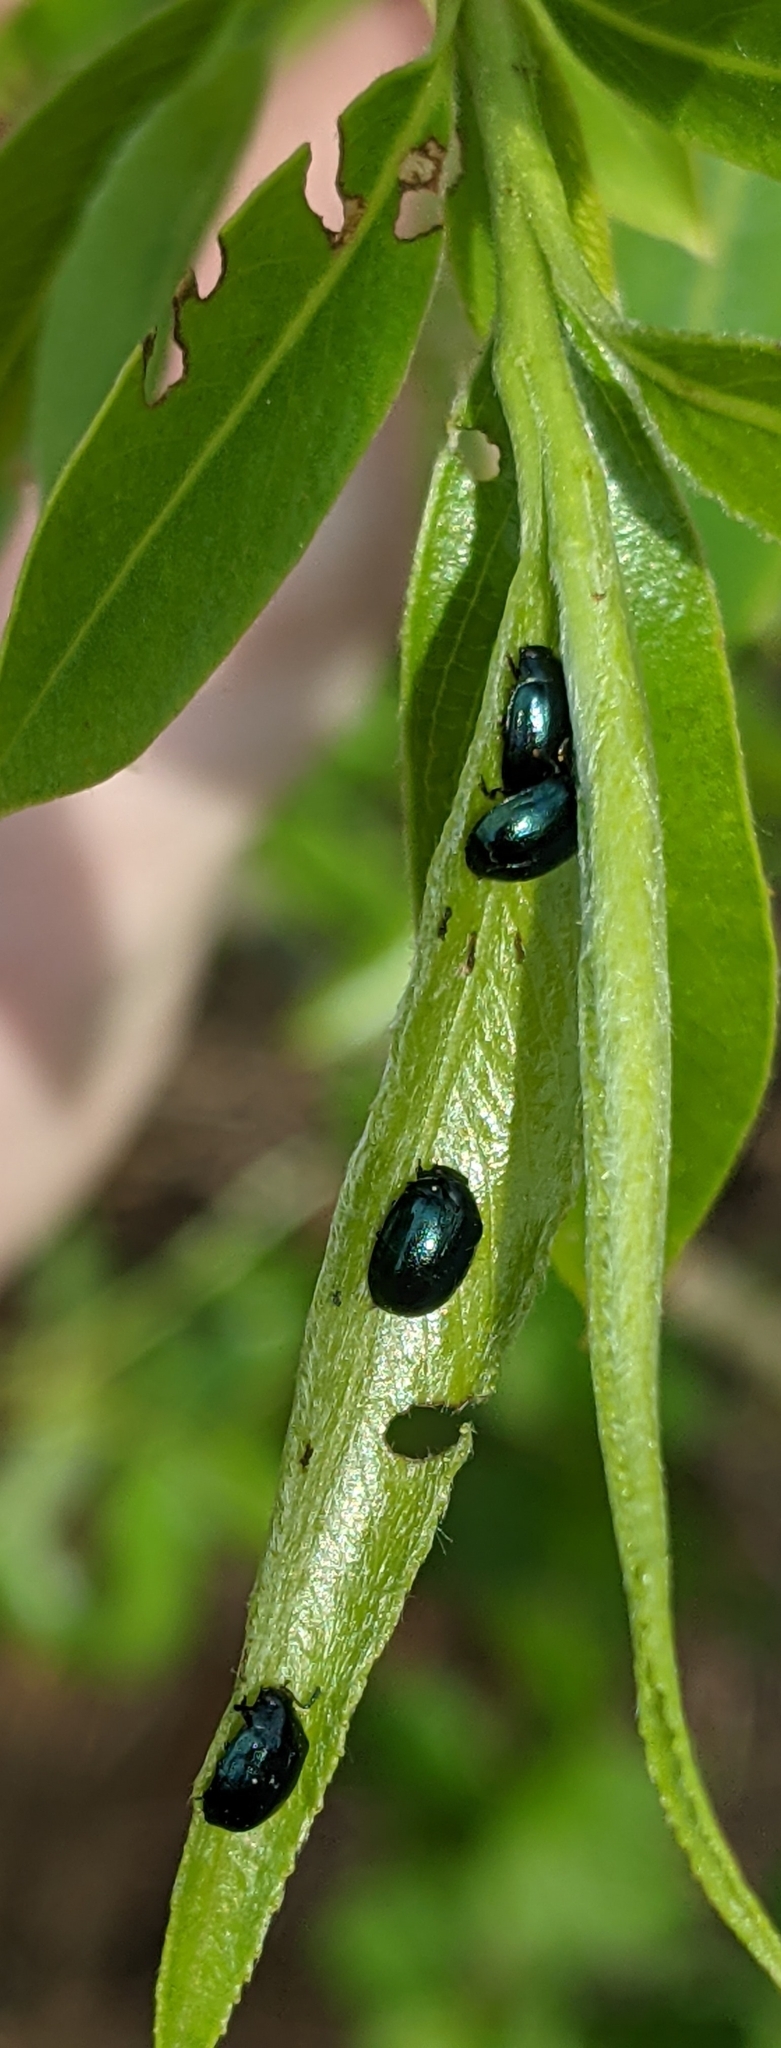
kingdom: Animalia
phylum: Arthropoda
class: Insecta
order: Coleoptera
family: Chrysomelidae
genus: Plagiodera
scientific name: Plagiodera versicolora
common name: Imported willow leaf beetle
